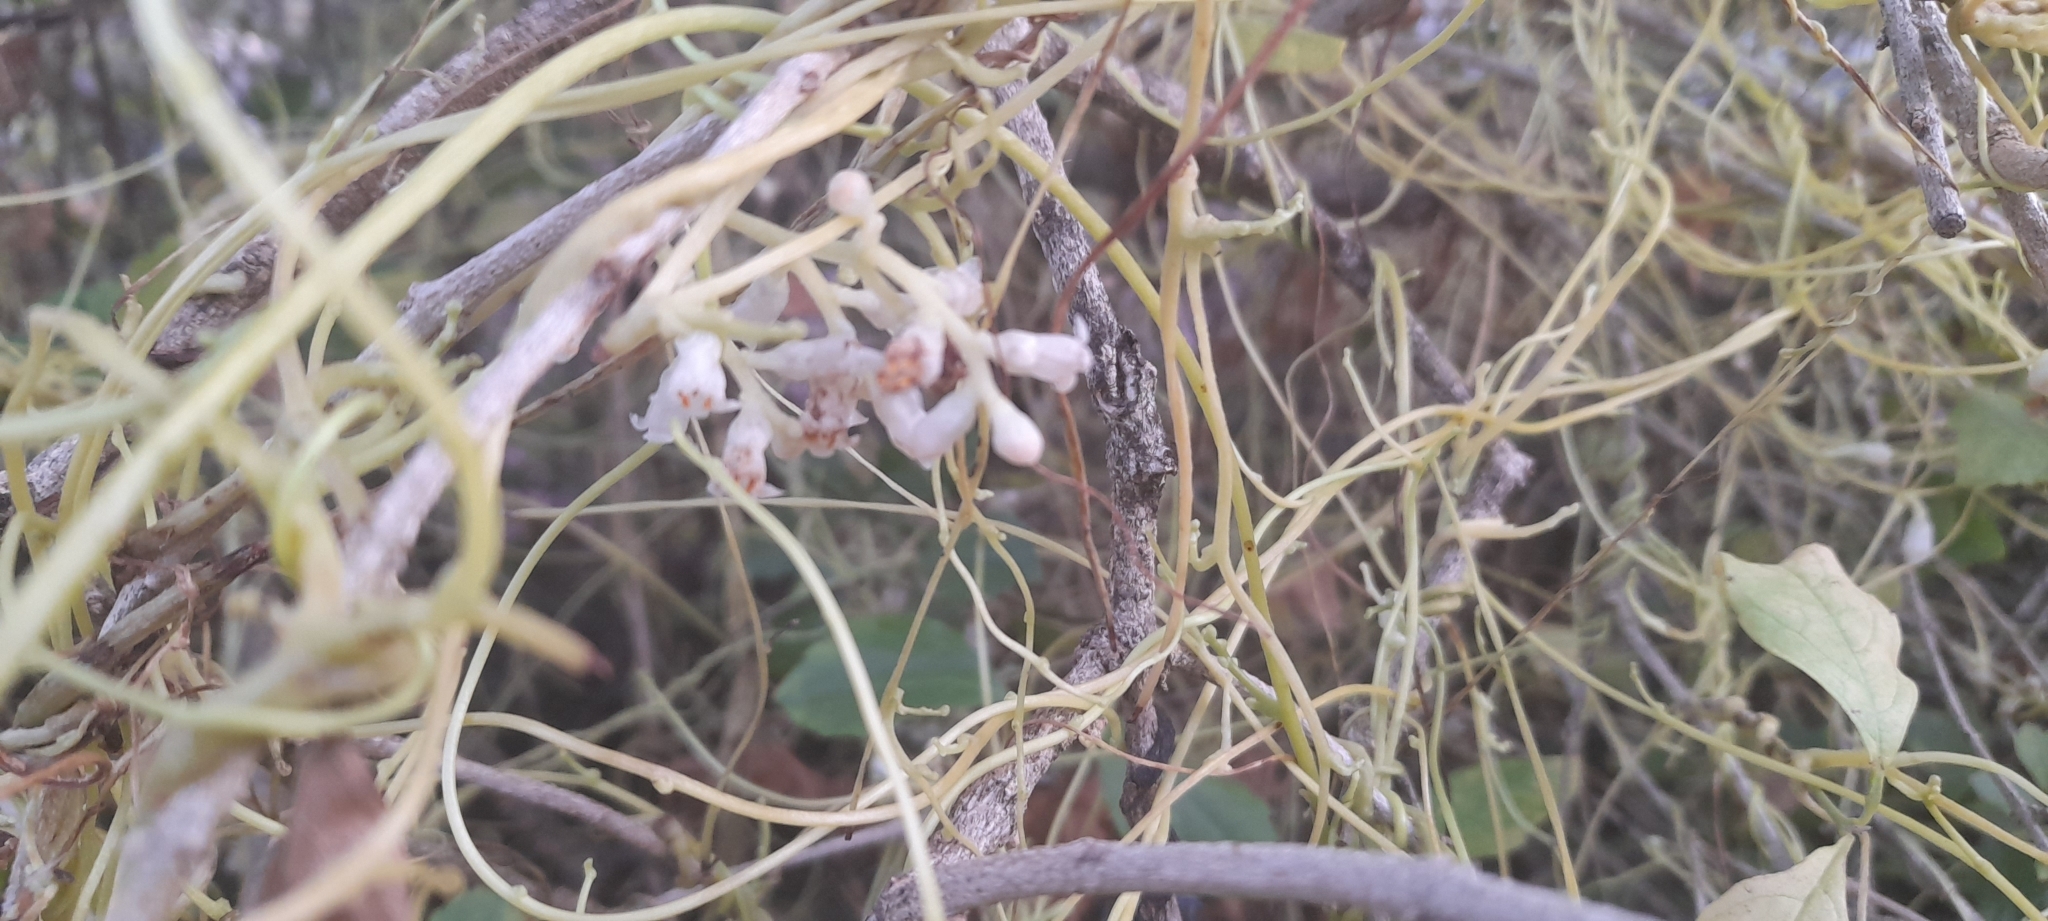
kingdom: Plantae
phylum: Tracheophyta
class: Magnoliopsida
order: Solanales
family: Convolvulaceae
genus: Cuscuta
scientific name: Cuscuta reflexa
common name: Giant dodder
